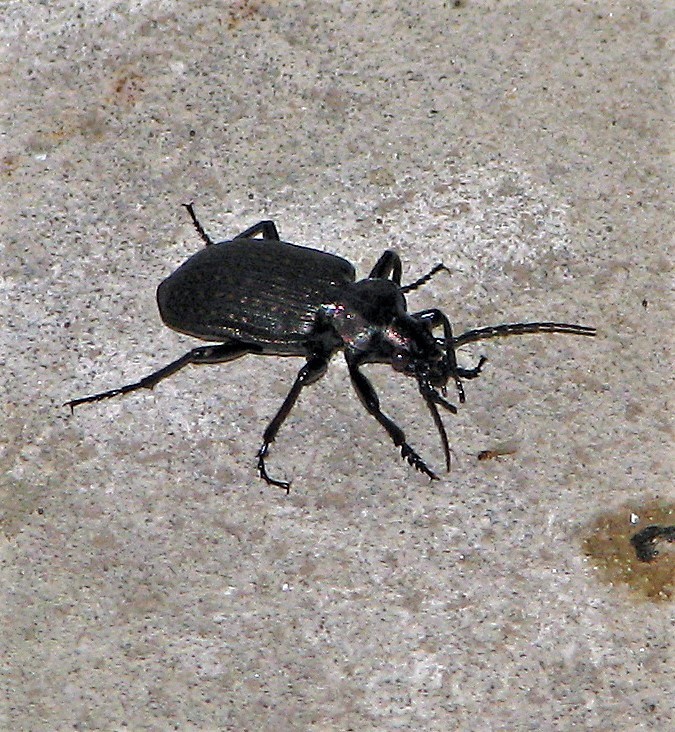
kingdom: Animalia
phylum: Arthropoda
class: Insecta
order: Coleoptera
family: Carabidae
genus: Calosoma
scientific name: Calosoma argentinense
